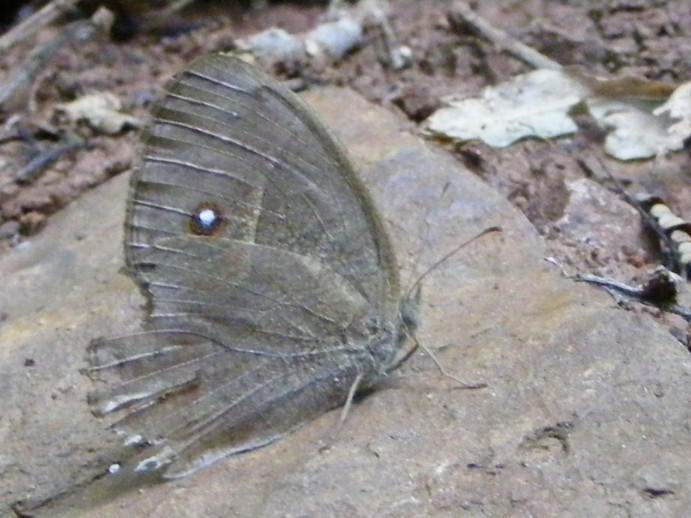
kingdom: Animalia
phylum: Arthropoda
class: Insecta
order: Lepidoptera
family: Nymphalidae
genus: Mycalesis
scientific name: Mycalesis anynana
